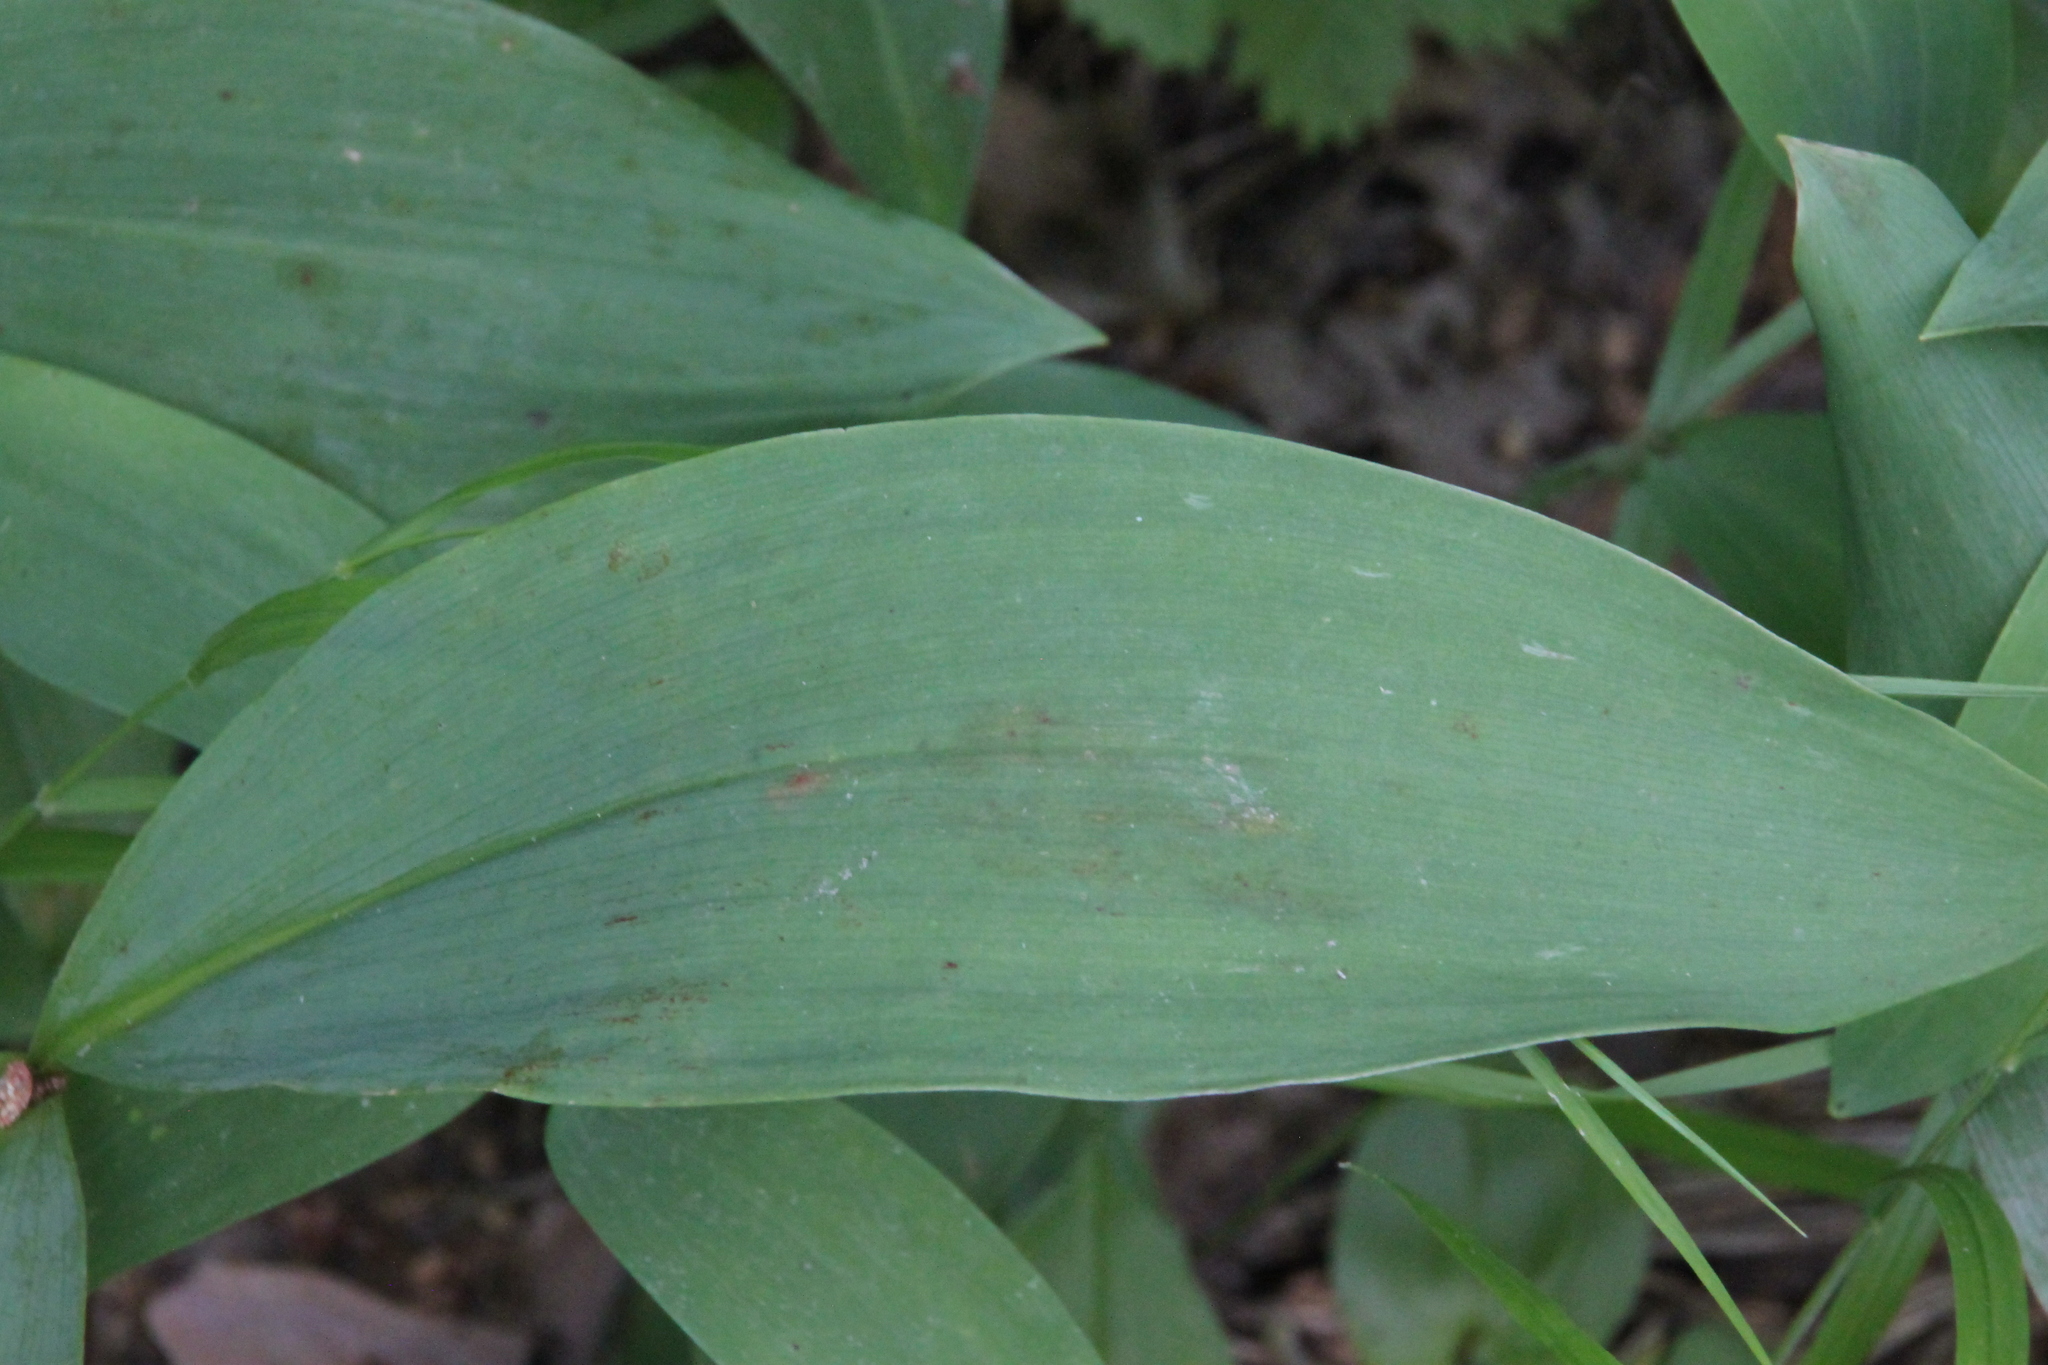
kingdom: Plantae
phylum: Tracheophyta
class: Liliopsida
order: Asparagales
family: Asparagaceae
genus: Convallaria
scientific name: Convallaria majalis
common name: Lily-of-the-valley
